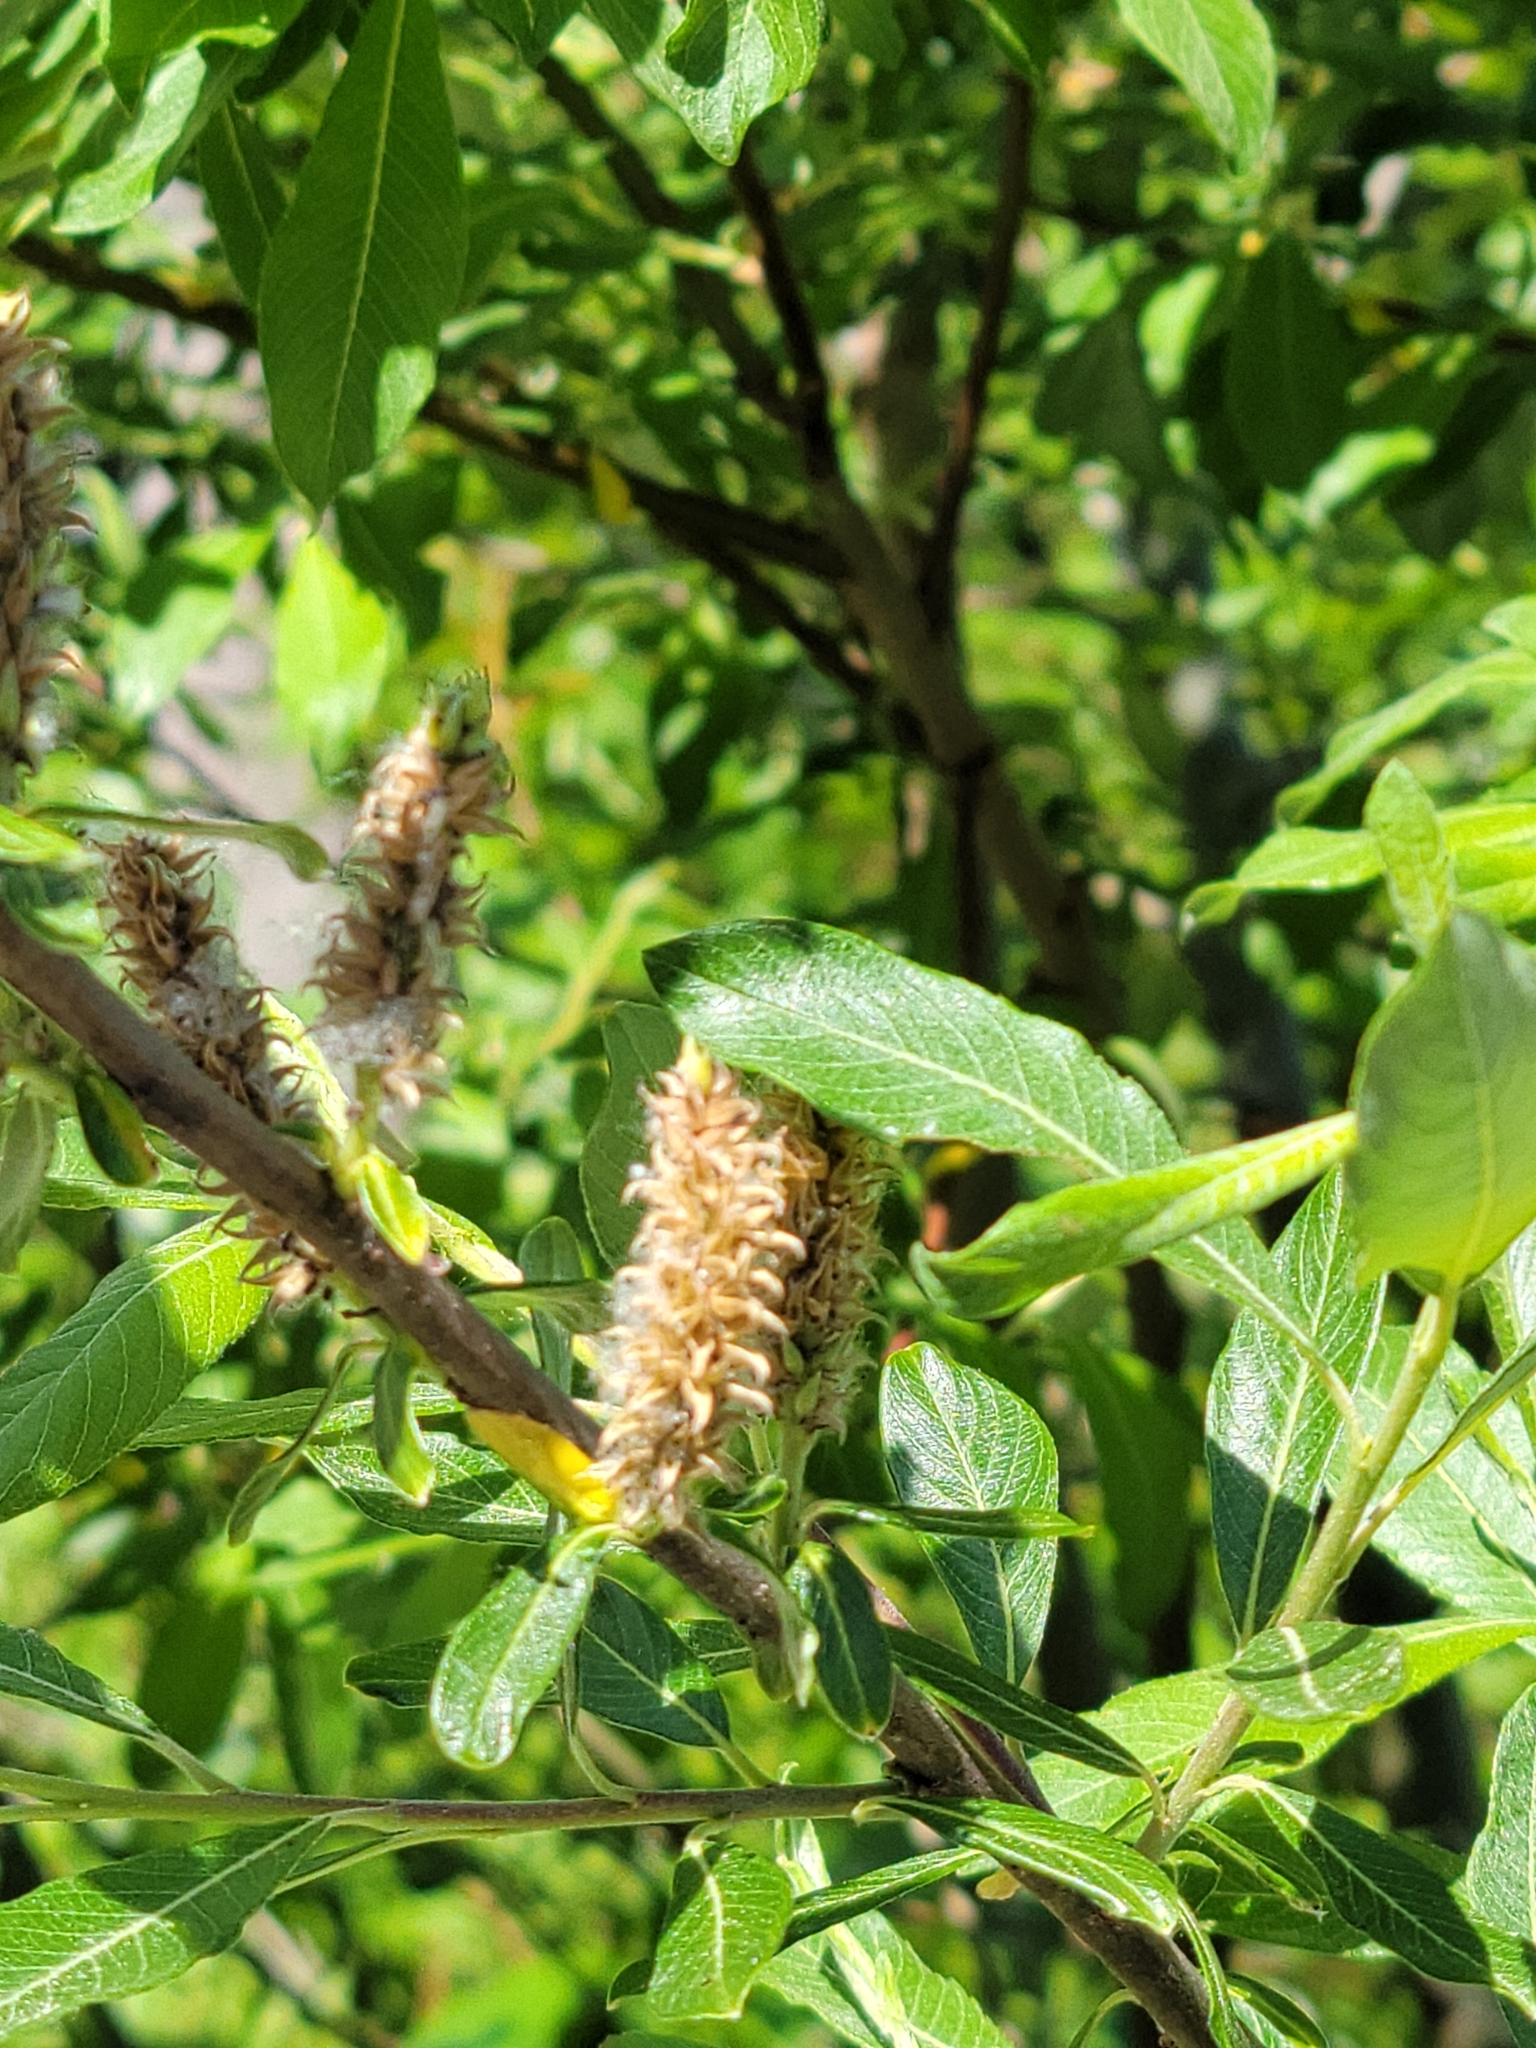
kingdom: Plantae
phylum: Tracheophyta
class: Magnoliopsida
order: Malpighiales
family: Salicaceae
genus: Salix
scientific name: Salix sitchensis
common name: Sitka willow
